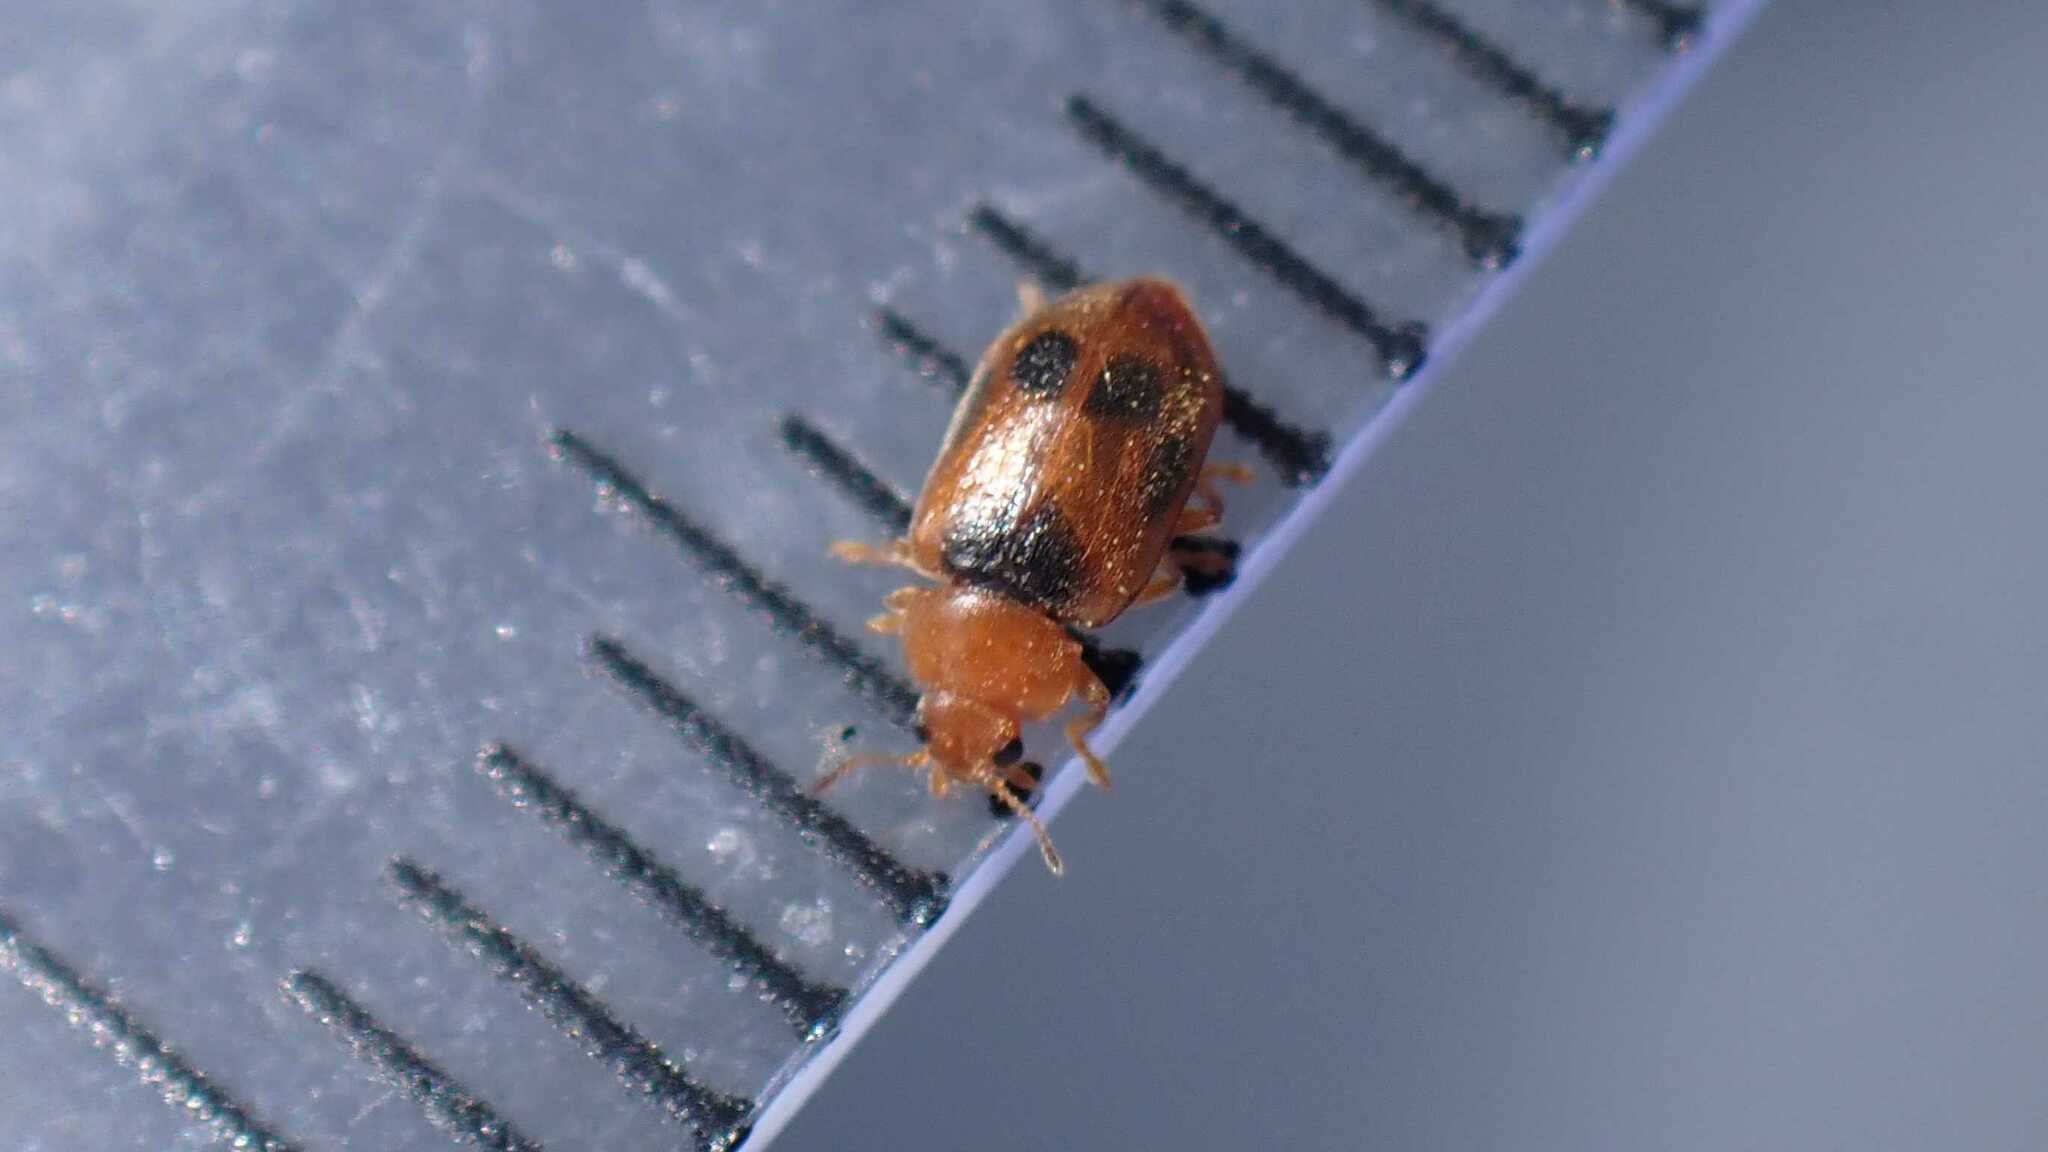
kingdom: Animalia
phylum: Arthropoda
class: Insecta
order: Coleoptera
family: Coccinellidae
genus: Coccidula
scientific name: Coccidula scutellata
